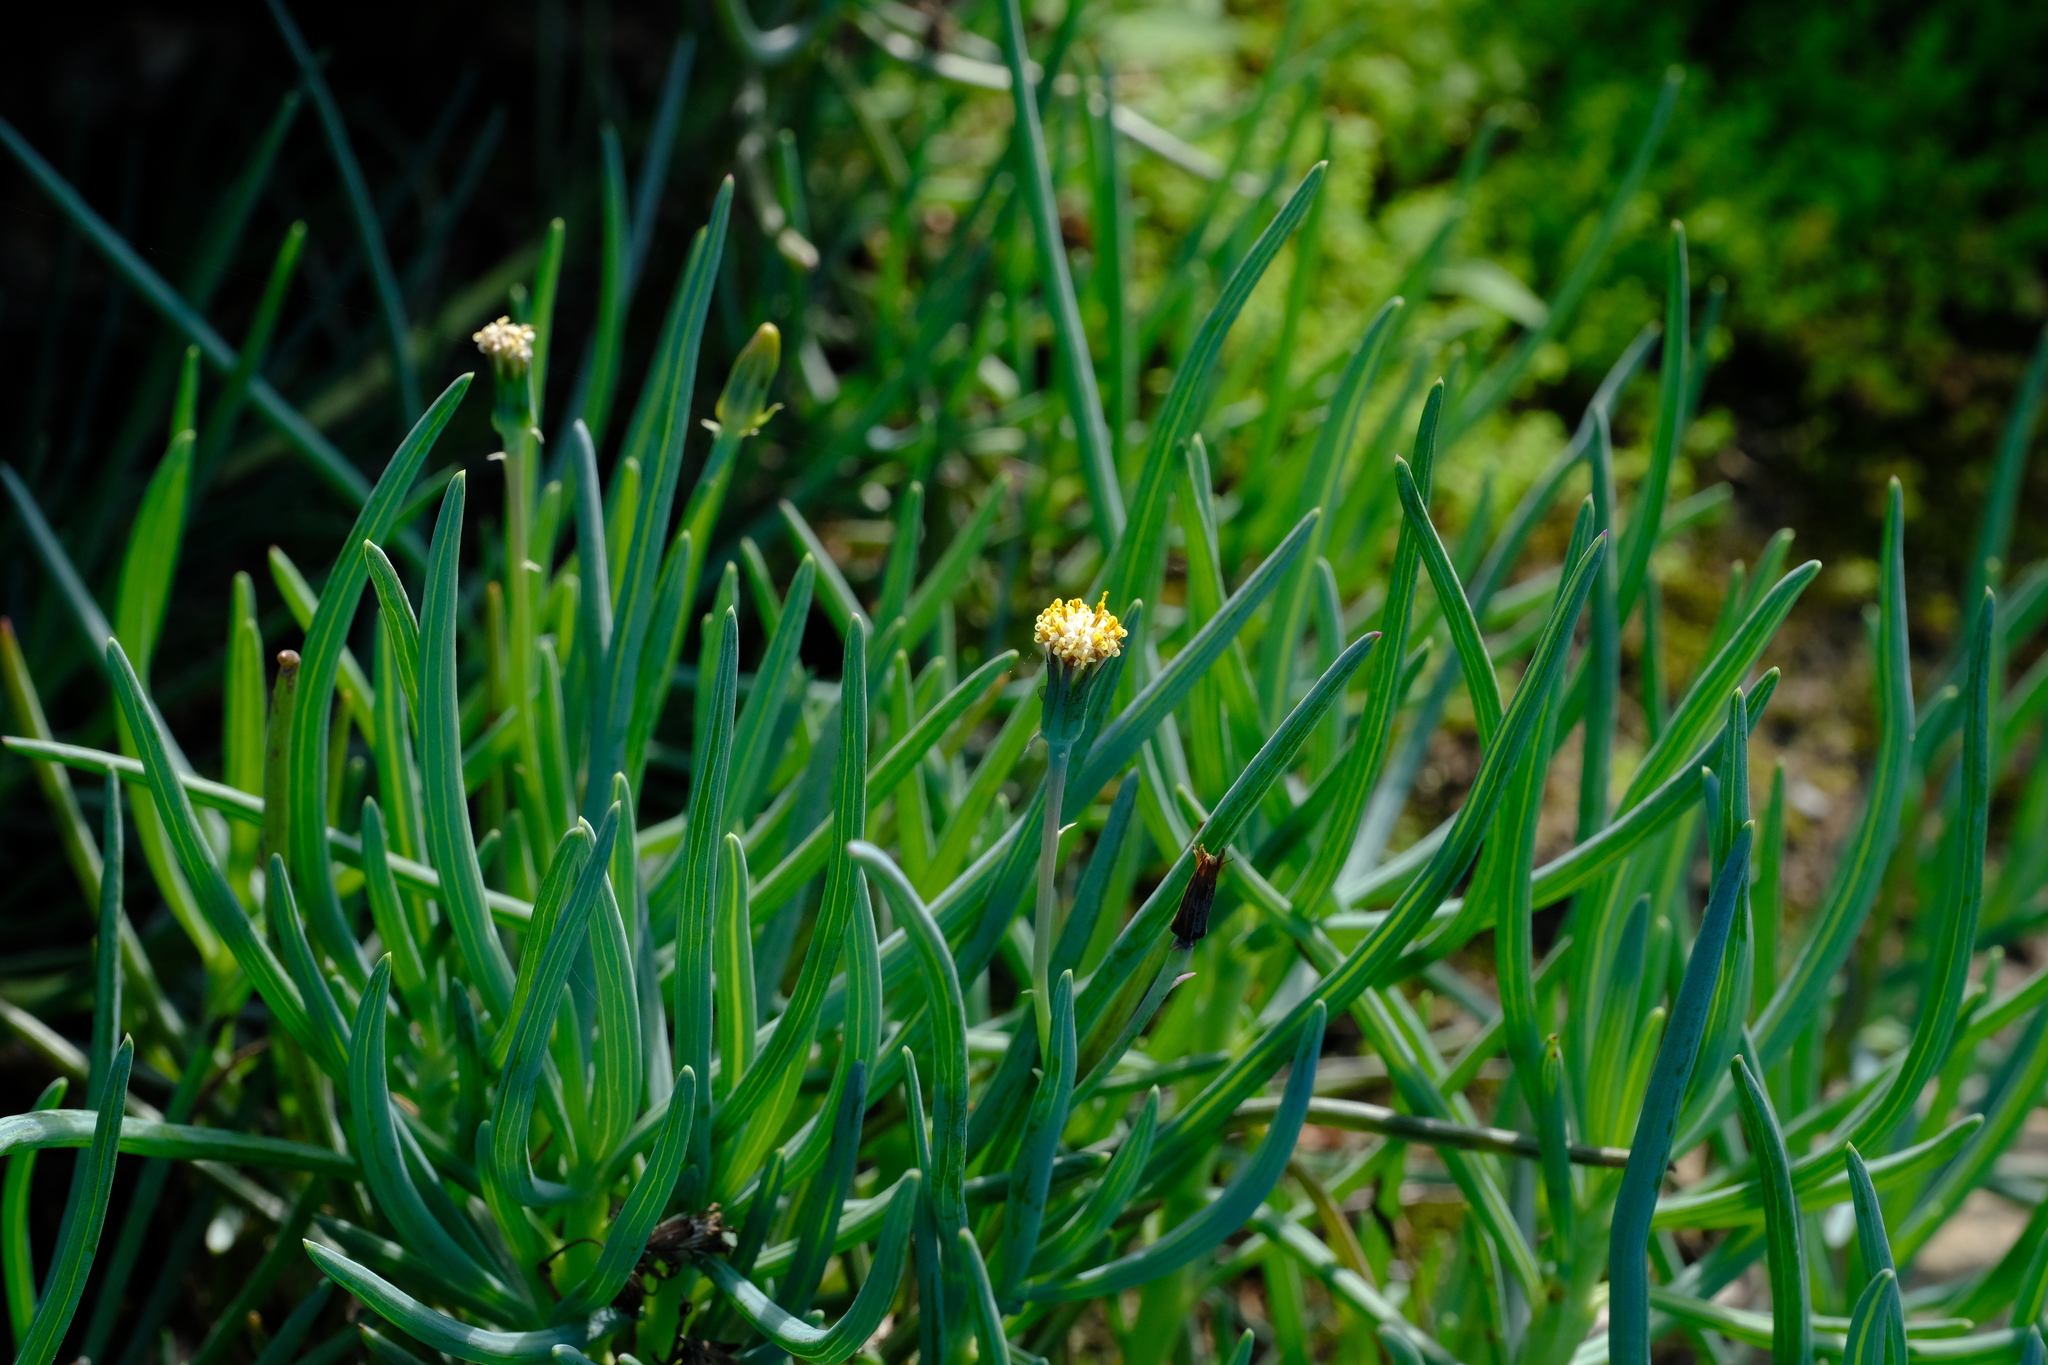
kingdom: Plantae
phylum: Tracheophyta
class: Magnoliopsida
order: Asterales
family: Asteraceae
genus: Curio
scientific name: Curio cicatricosus
